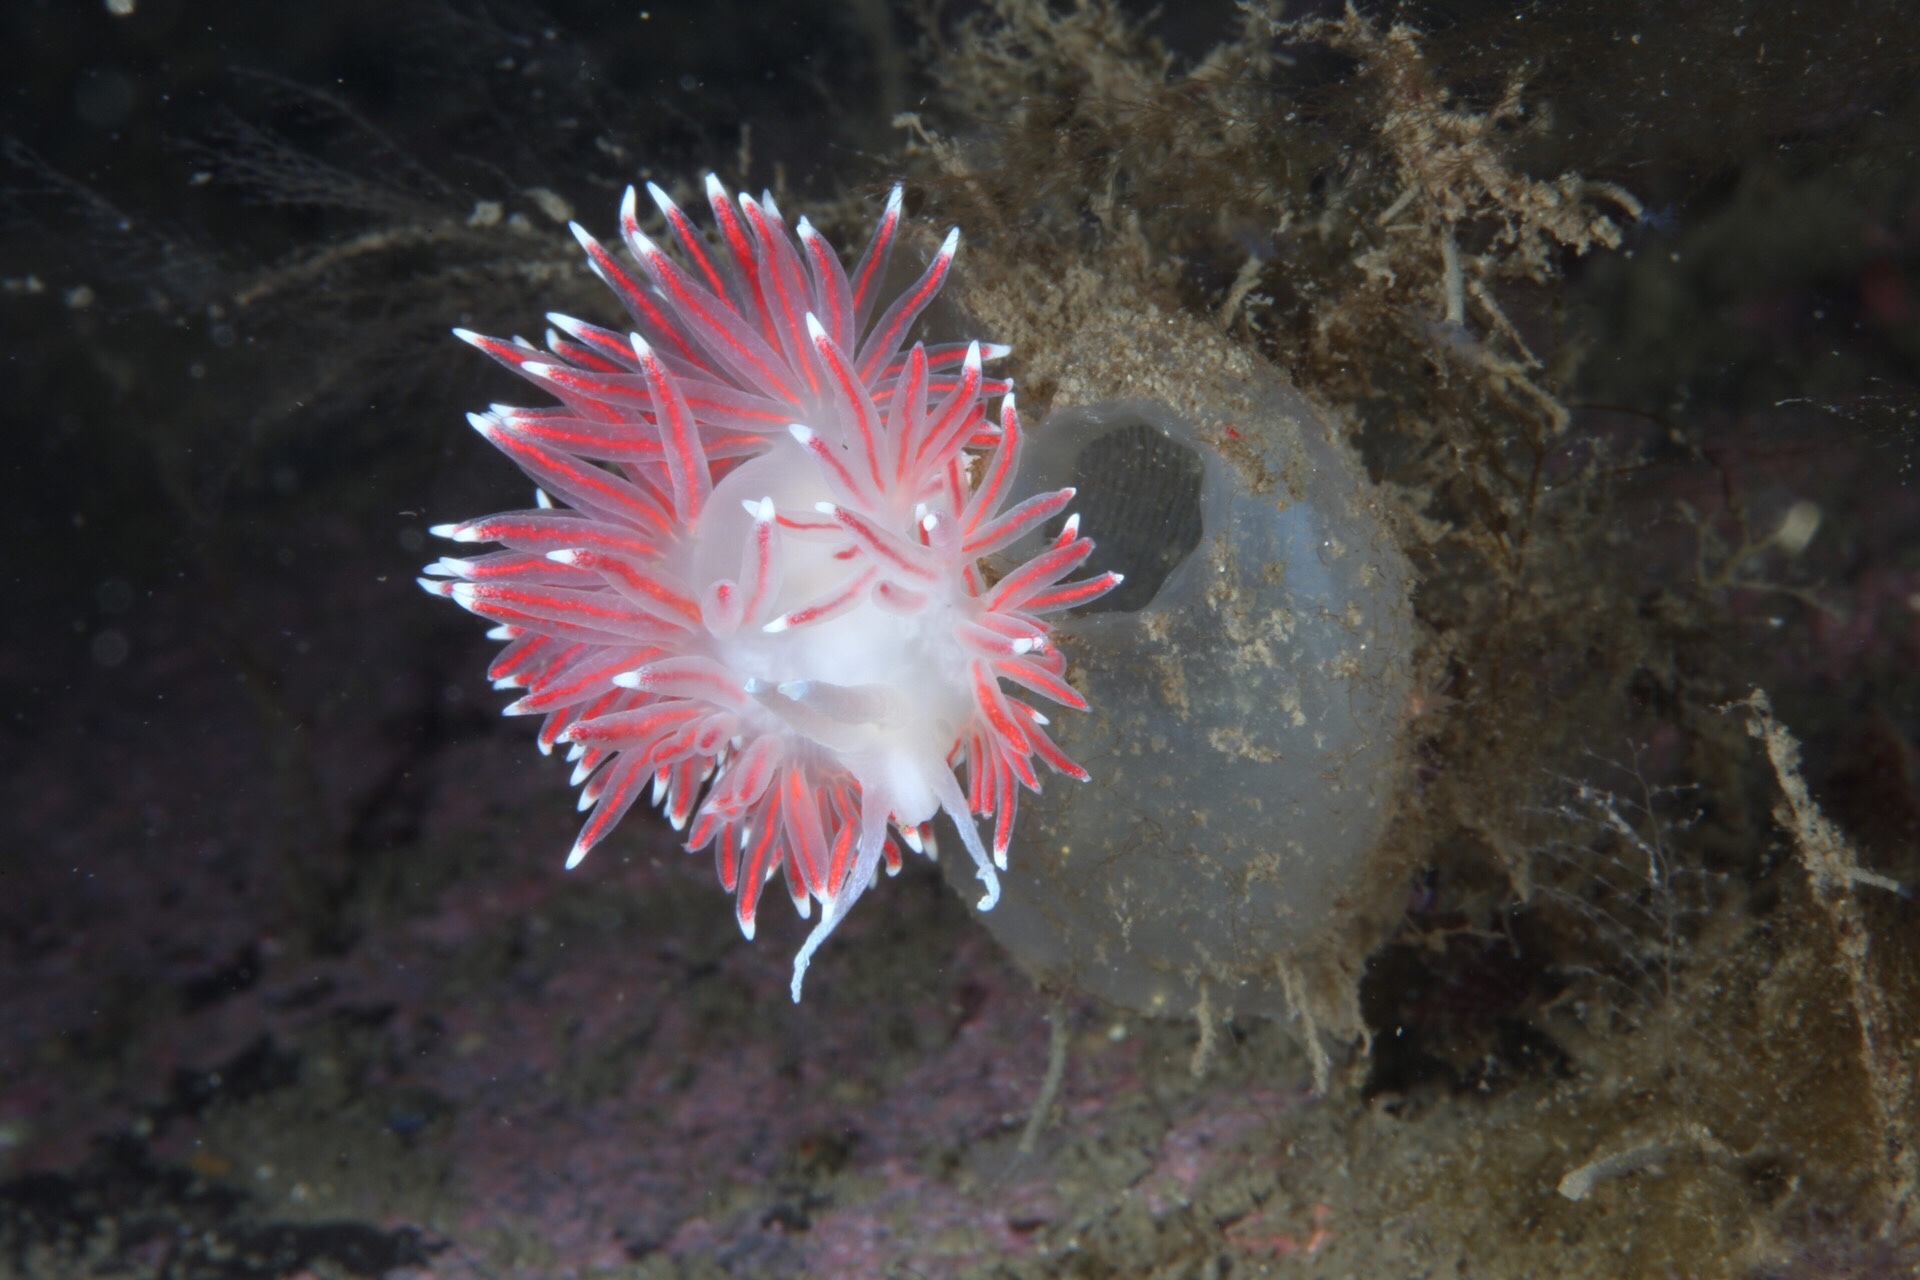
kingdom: Animalia
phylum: Mollusca
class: Gastropoda
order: Nudibranchia
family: Flabellinidae
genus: Carronella
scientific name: Carronella pellucida
